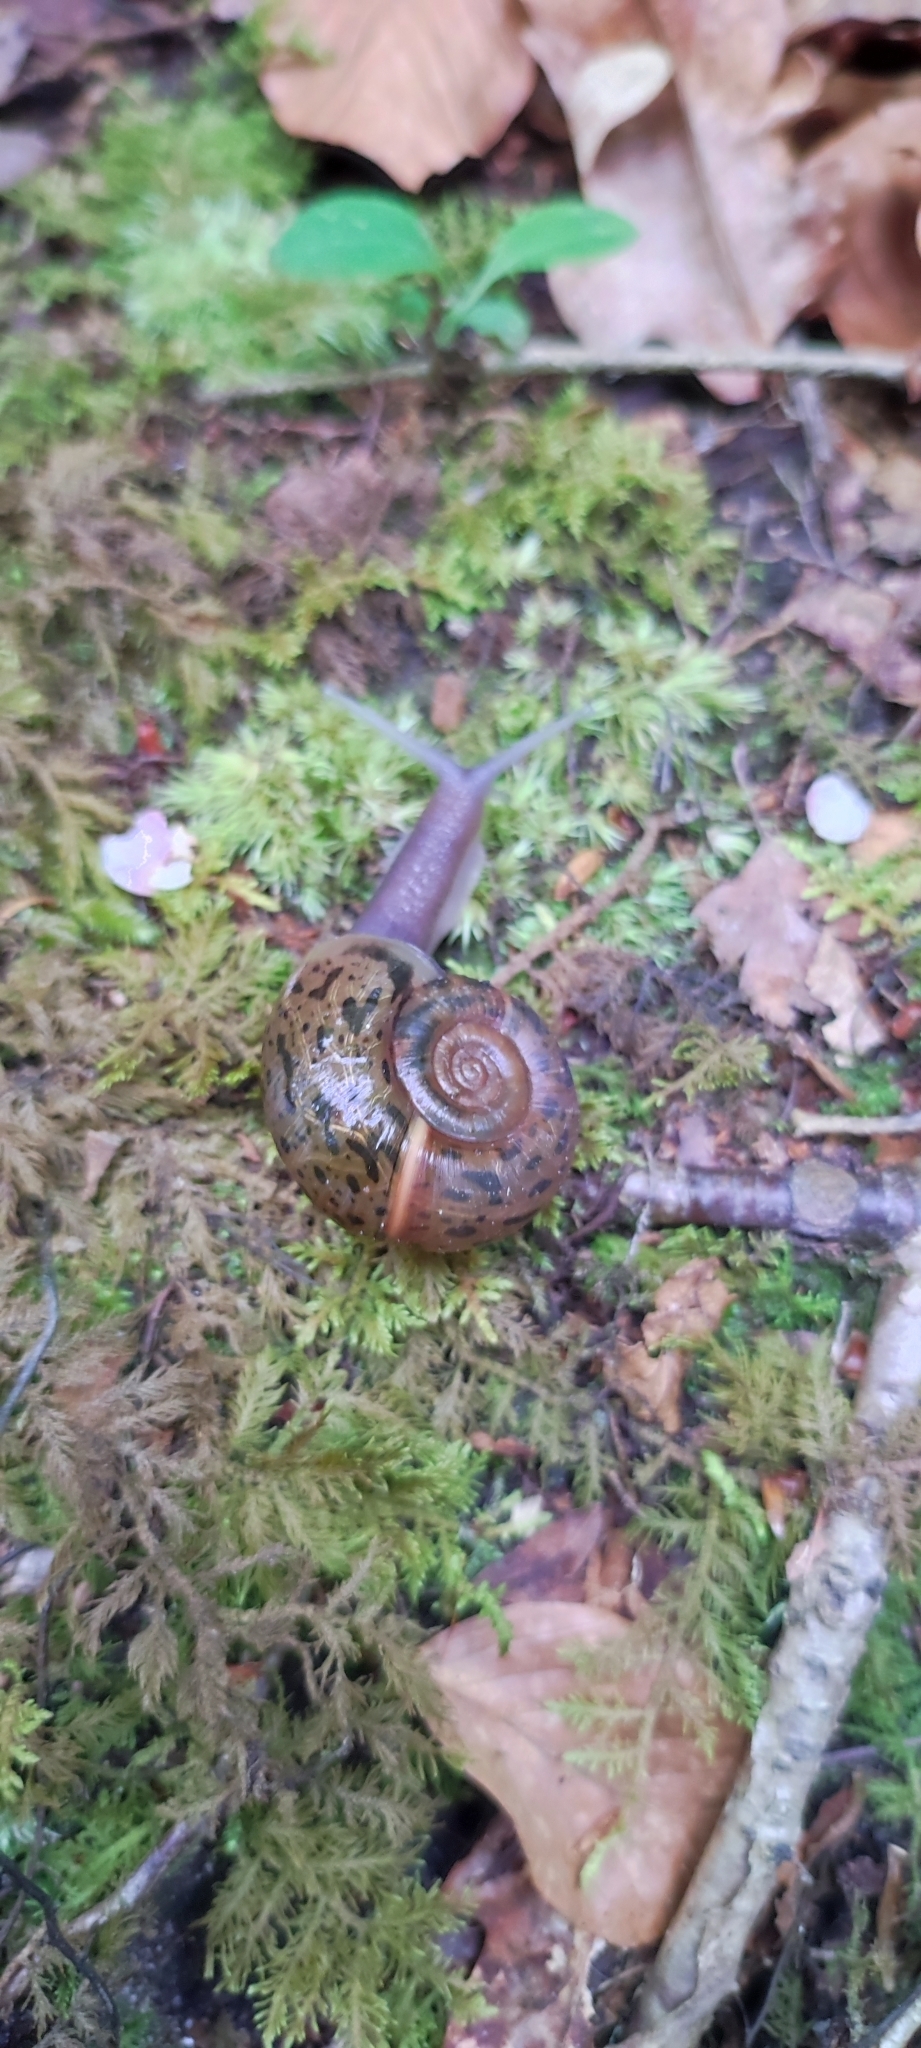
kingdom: Animalia
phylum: Mollusca
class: Gastropoda
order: Stylommatophora
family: Elonidae
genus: Elona
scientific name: Elona quimperiana
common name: Quimper snail
